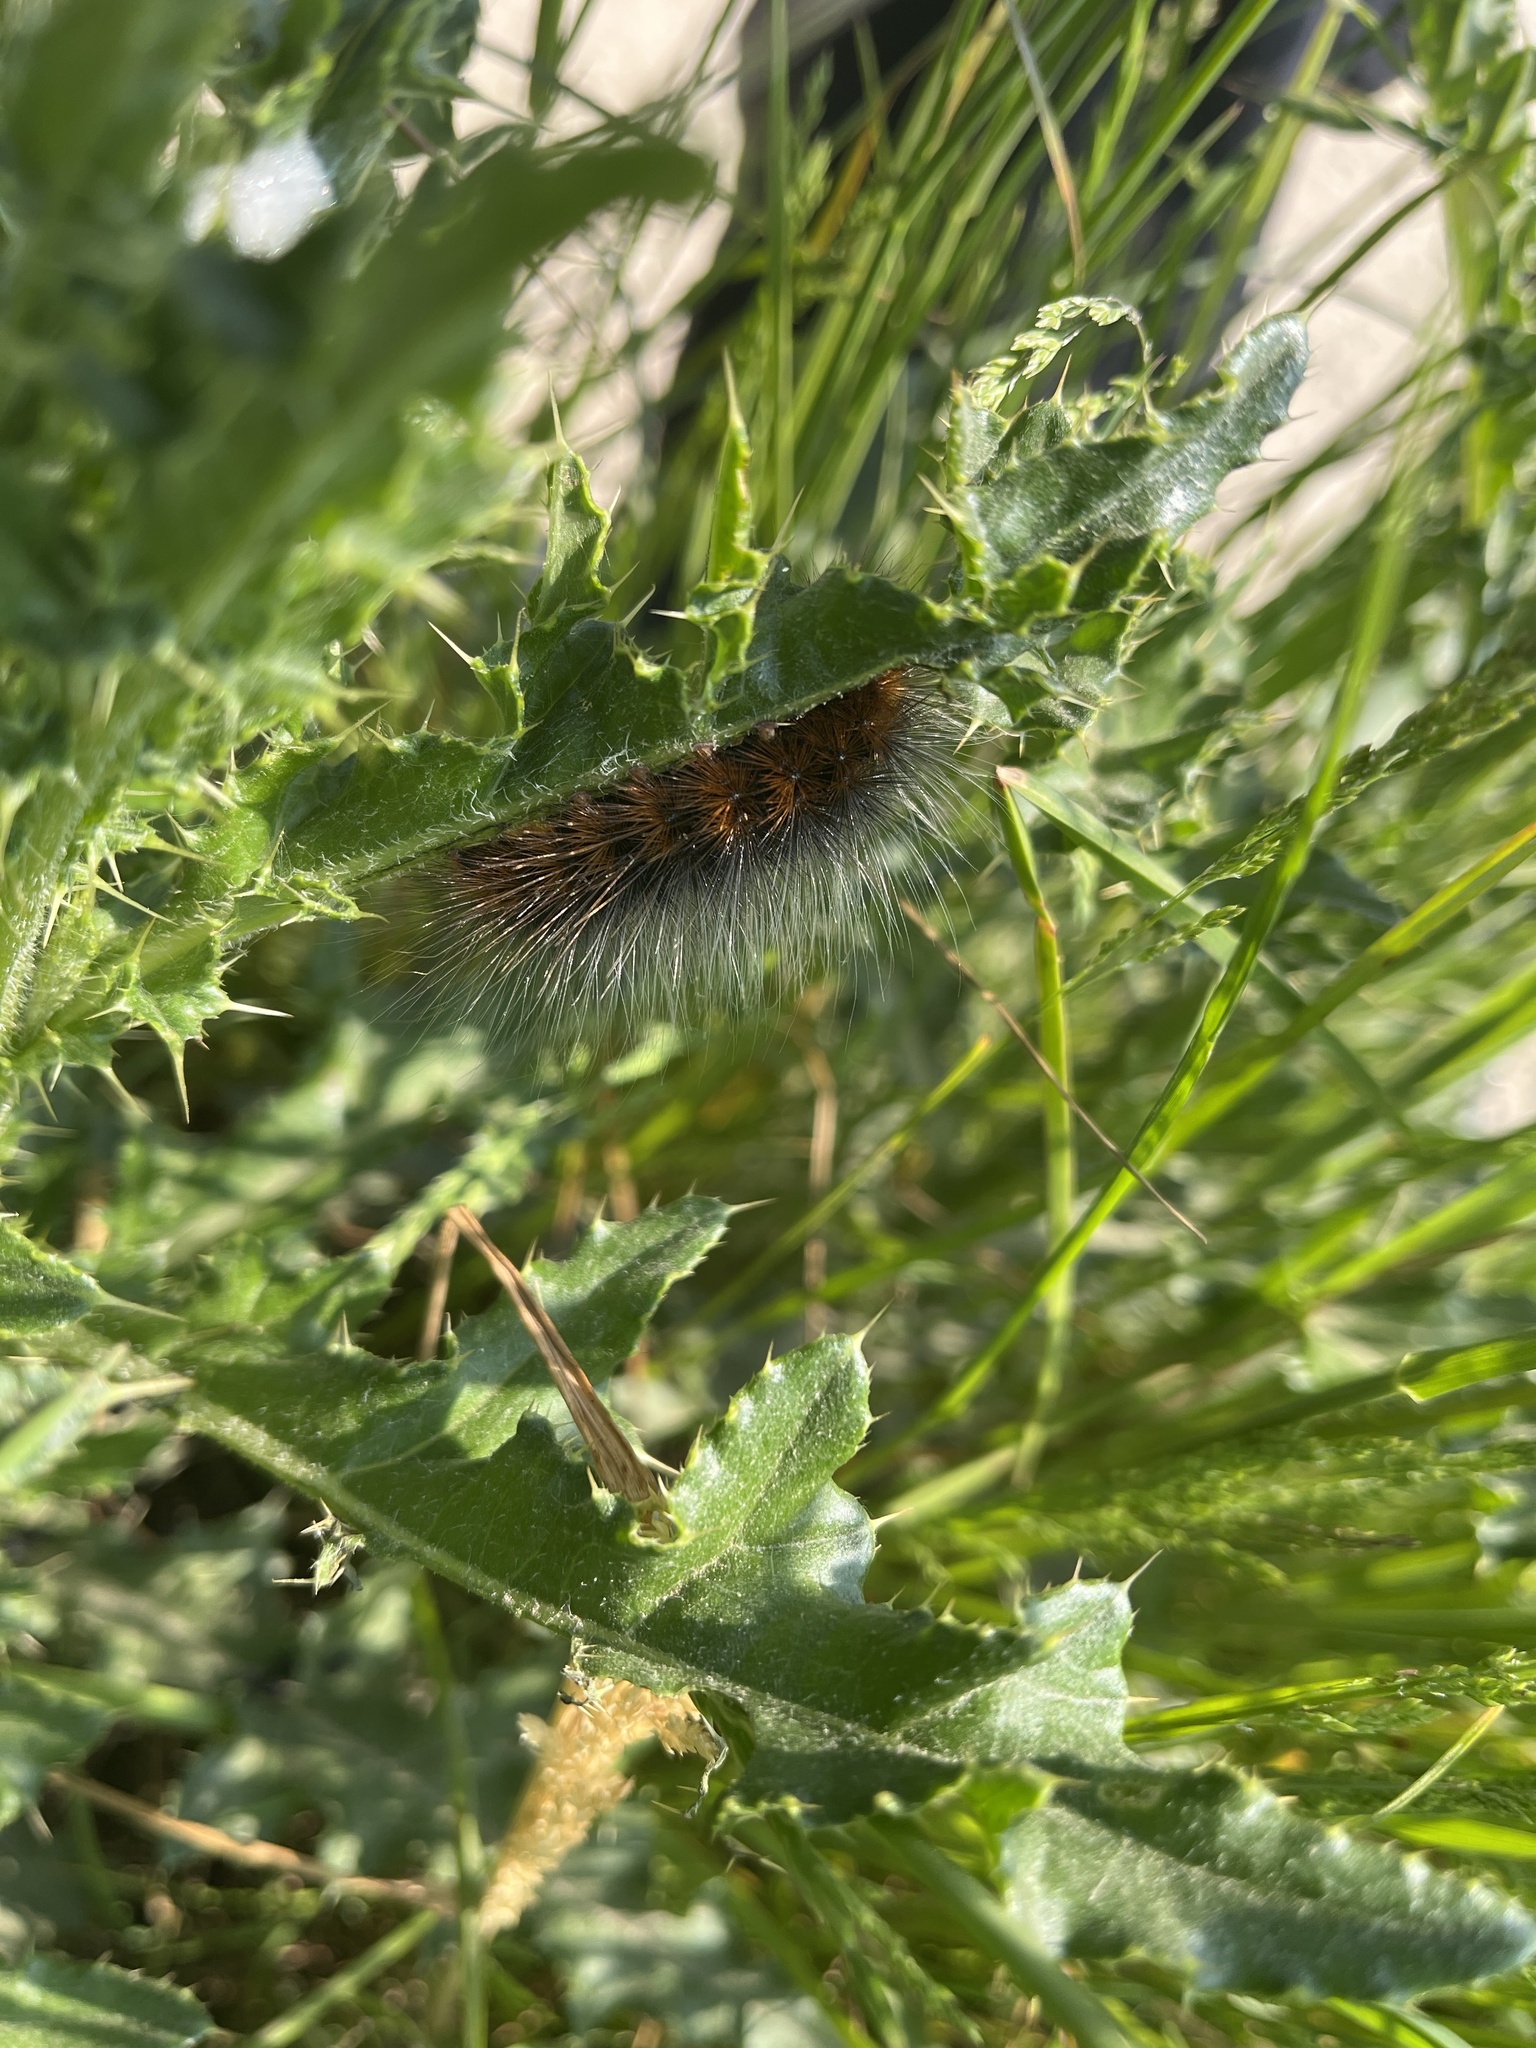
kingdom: Animalia
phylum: Arthropoda
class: Insecta
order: Lepidoptera
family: Erebidae
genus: Arctia
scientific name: Arctia caja
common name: Garden tiger
